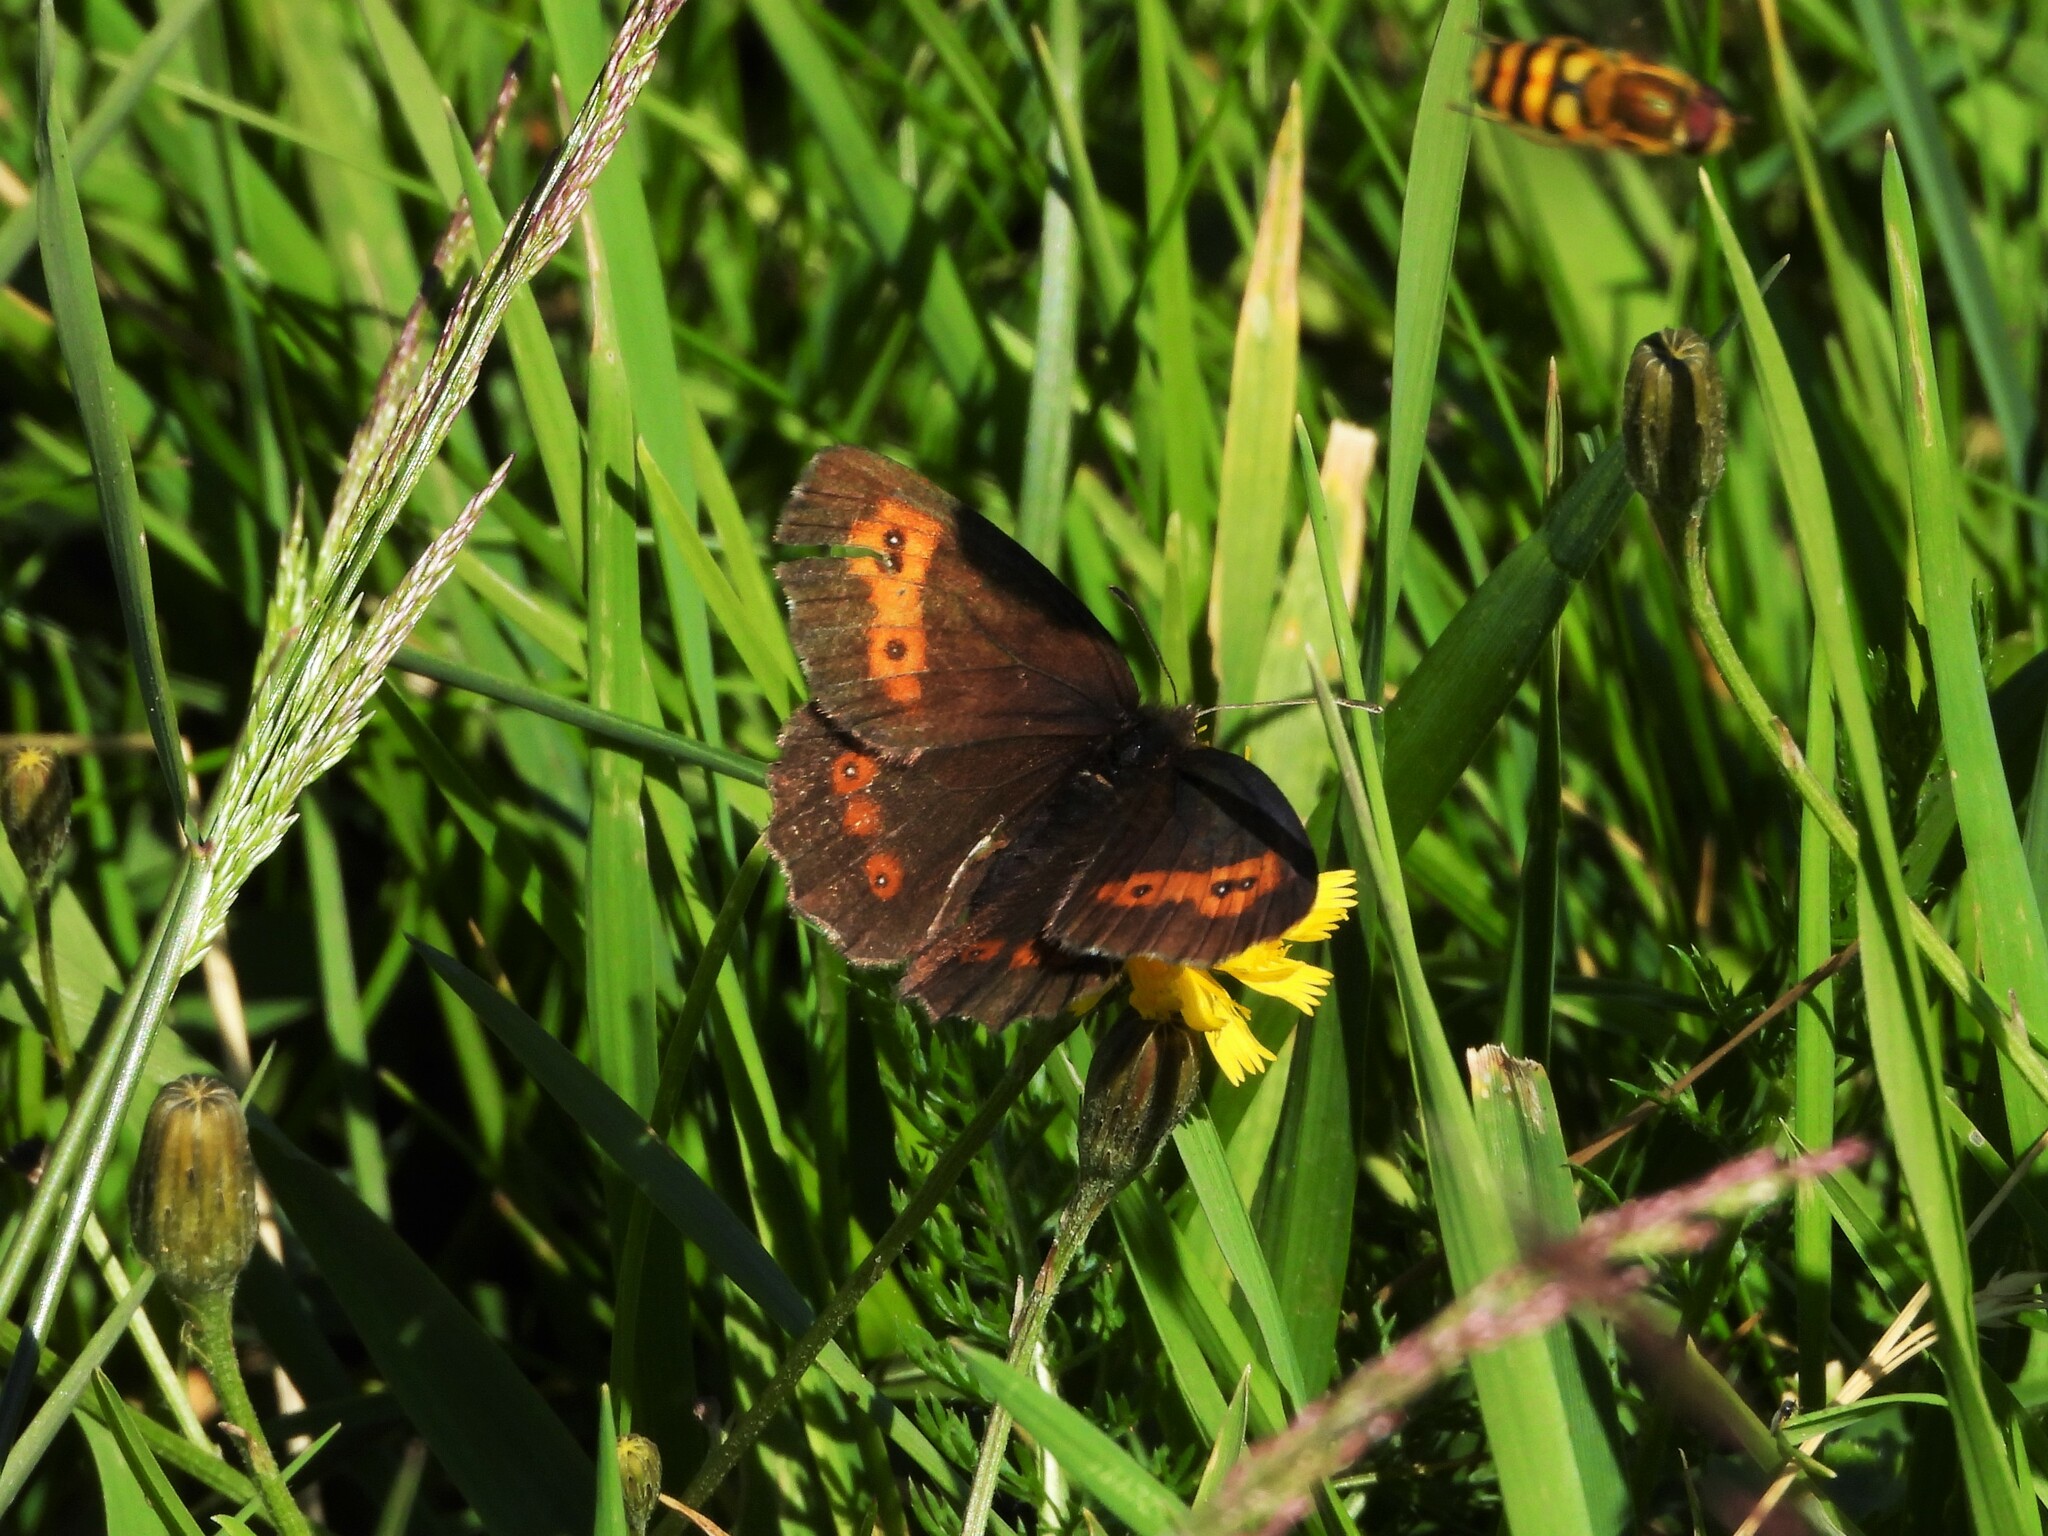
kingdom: Animalia
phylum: Arthropoda
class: Insecta
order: Lepidoptera
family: Nymphalidae
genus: Erebia
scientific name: Erebia euryale
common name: Large ringlet
